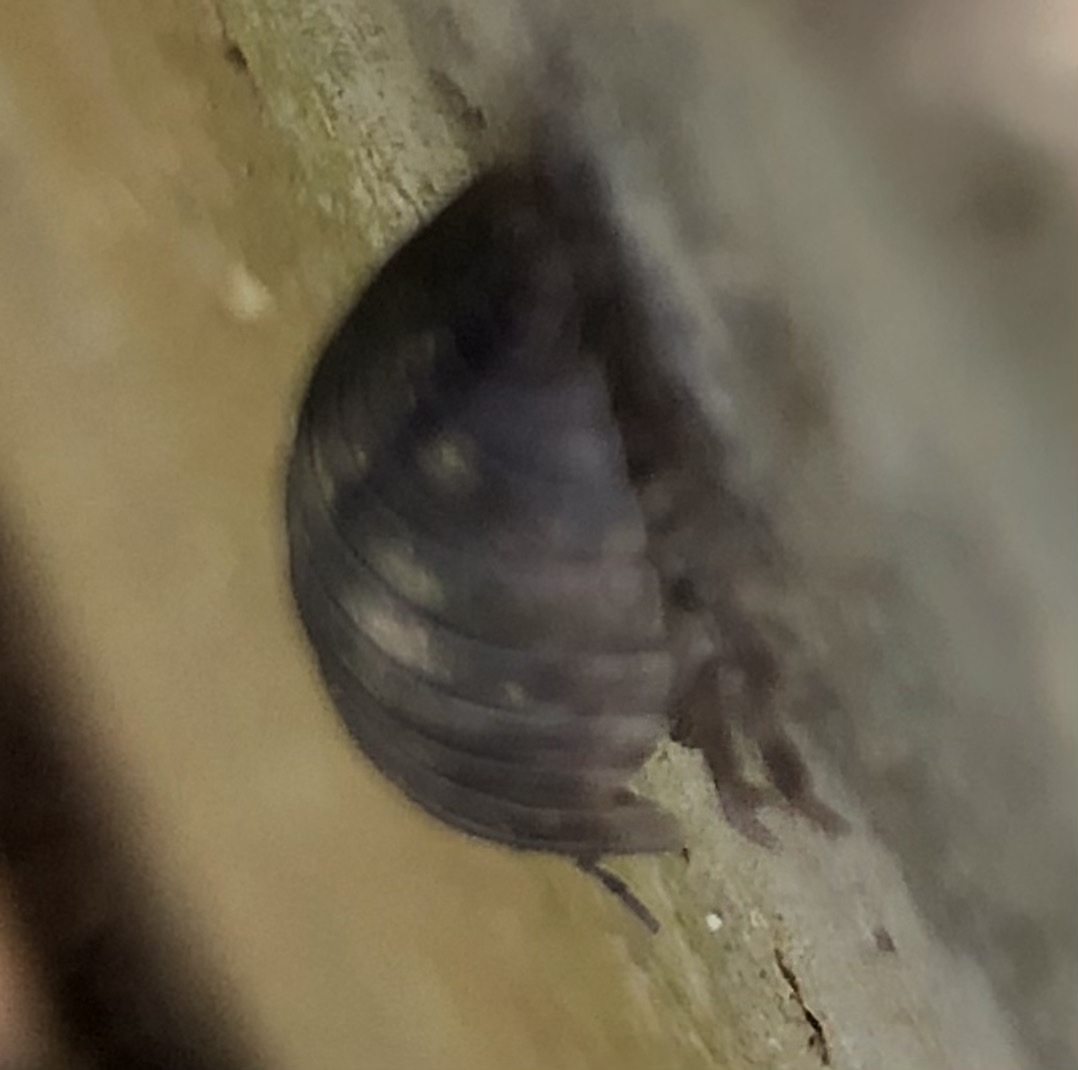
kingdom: Animalia
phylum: Arthropoda
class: Malacostraca
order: Isopoda
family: Armadillidiidae
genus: Armadillidium
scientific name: Armadillidium vulgare
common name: Common pill woodlouse
